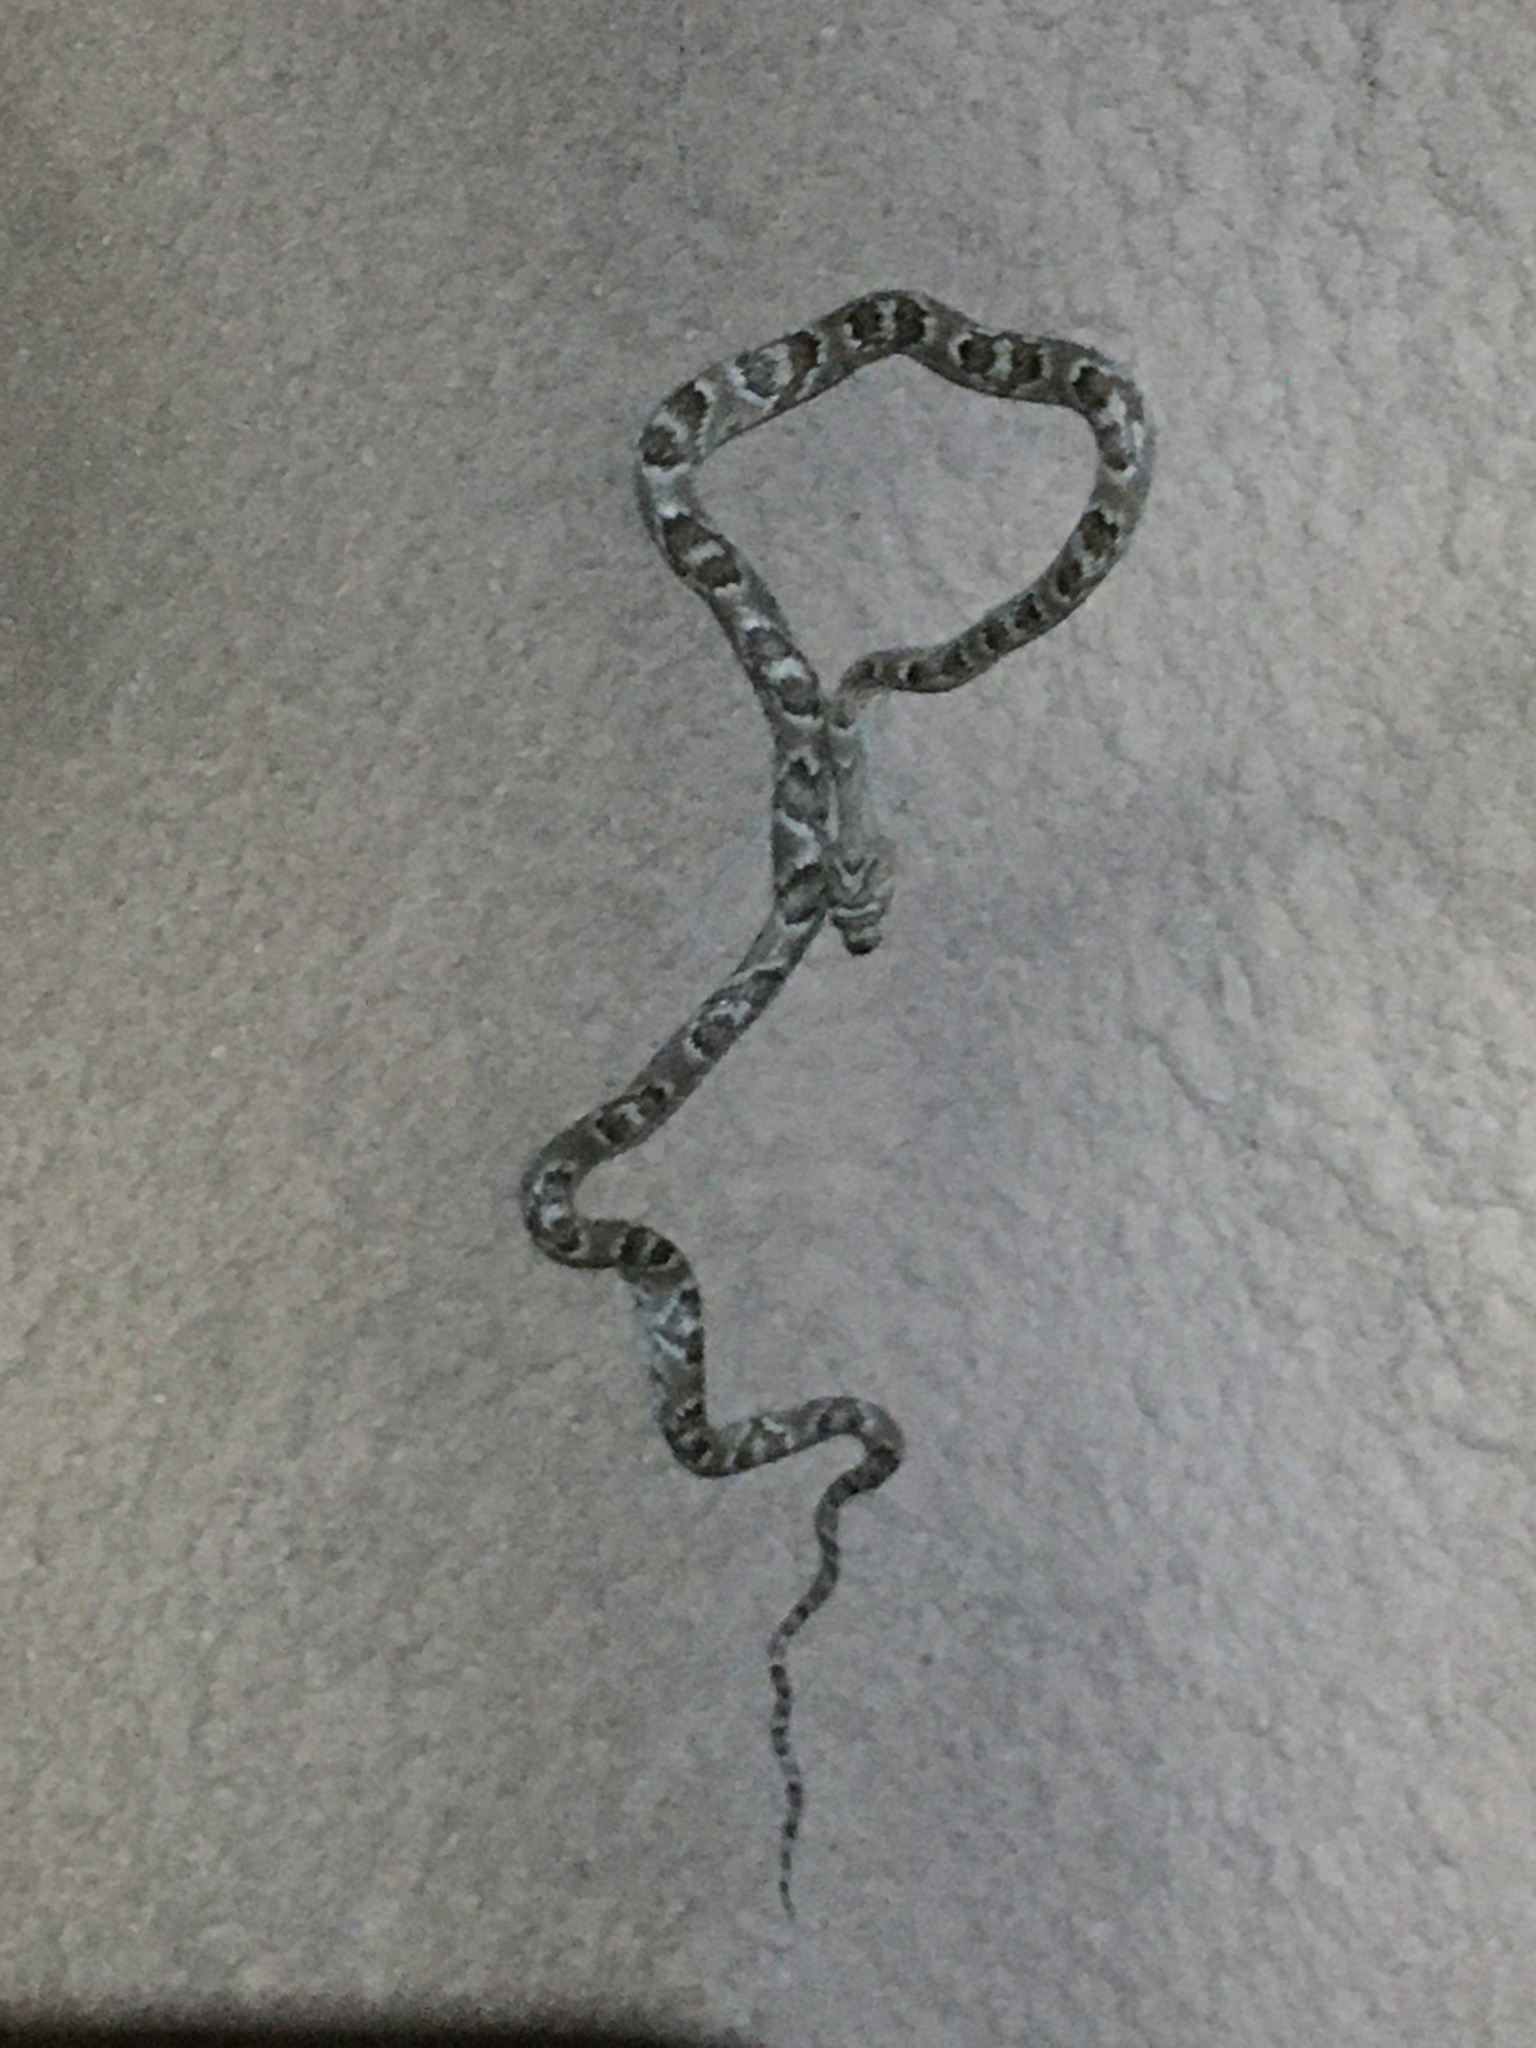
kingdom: Animalia
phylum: Chordata
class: Squamata
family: Colubridae
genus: Trimorphodon
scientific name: Trimorphodon lambda
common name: Sonoran lyre snake
